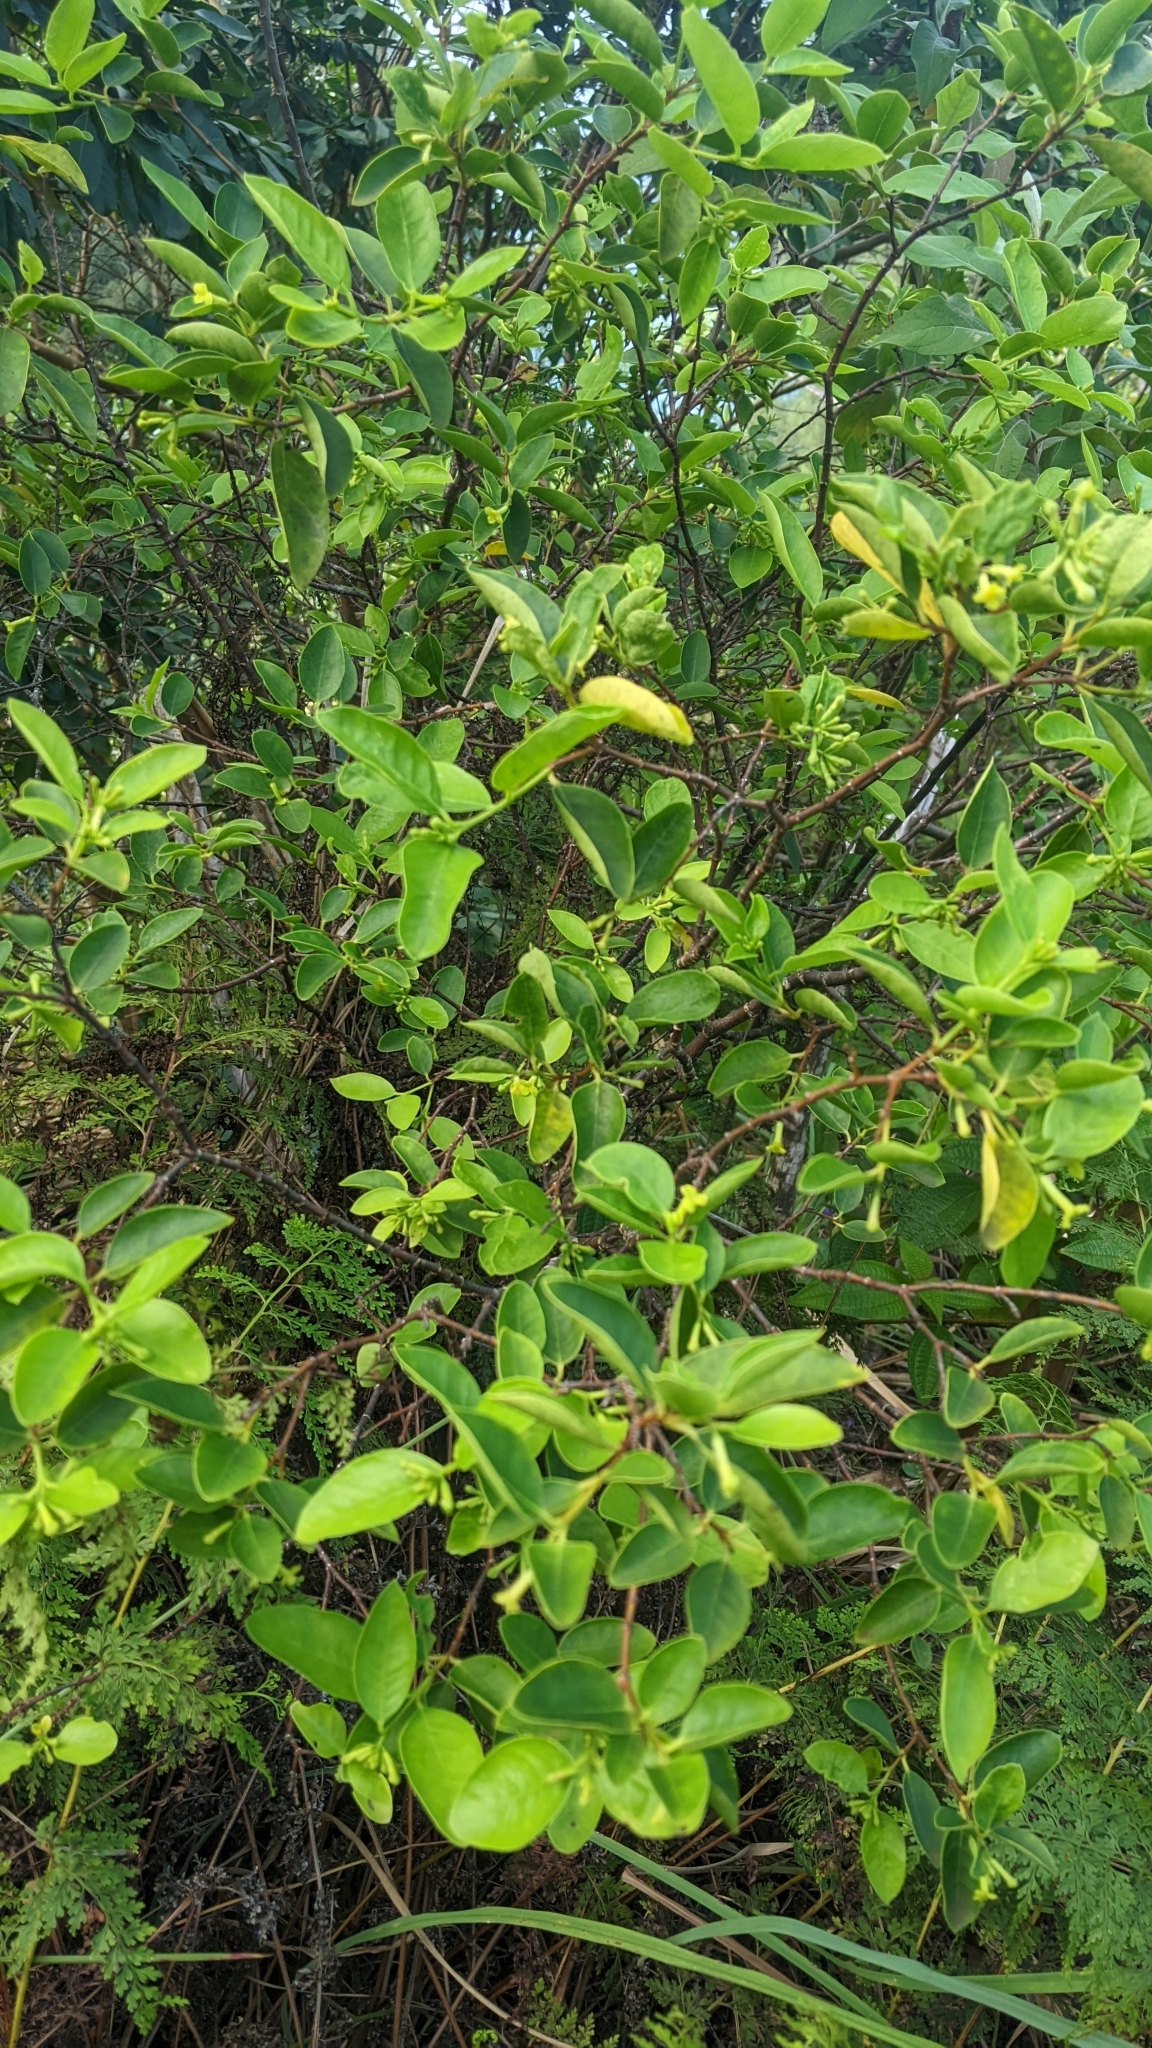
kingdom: Plantae
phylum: Tracheophyta
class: Magnoliopsida
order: Malvales
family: Thymelaeaceae
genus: Wikstroemia
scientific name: Wikstroemia oahuensis
